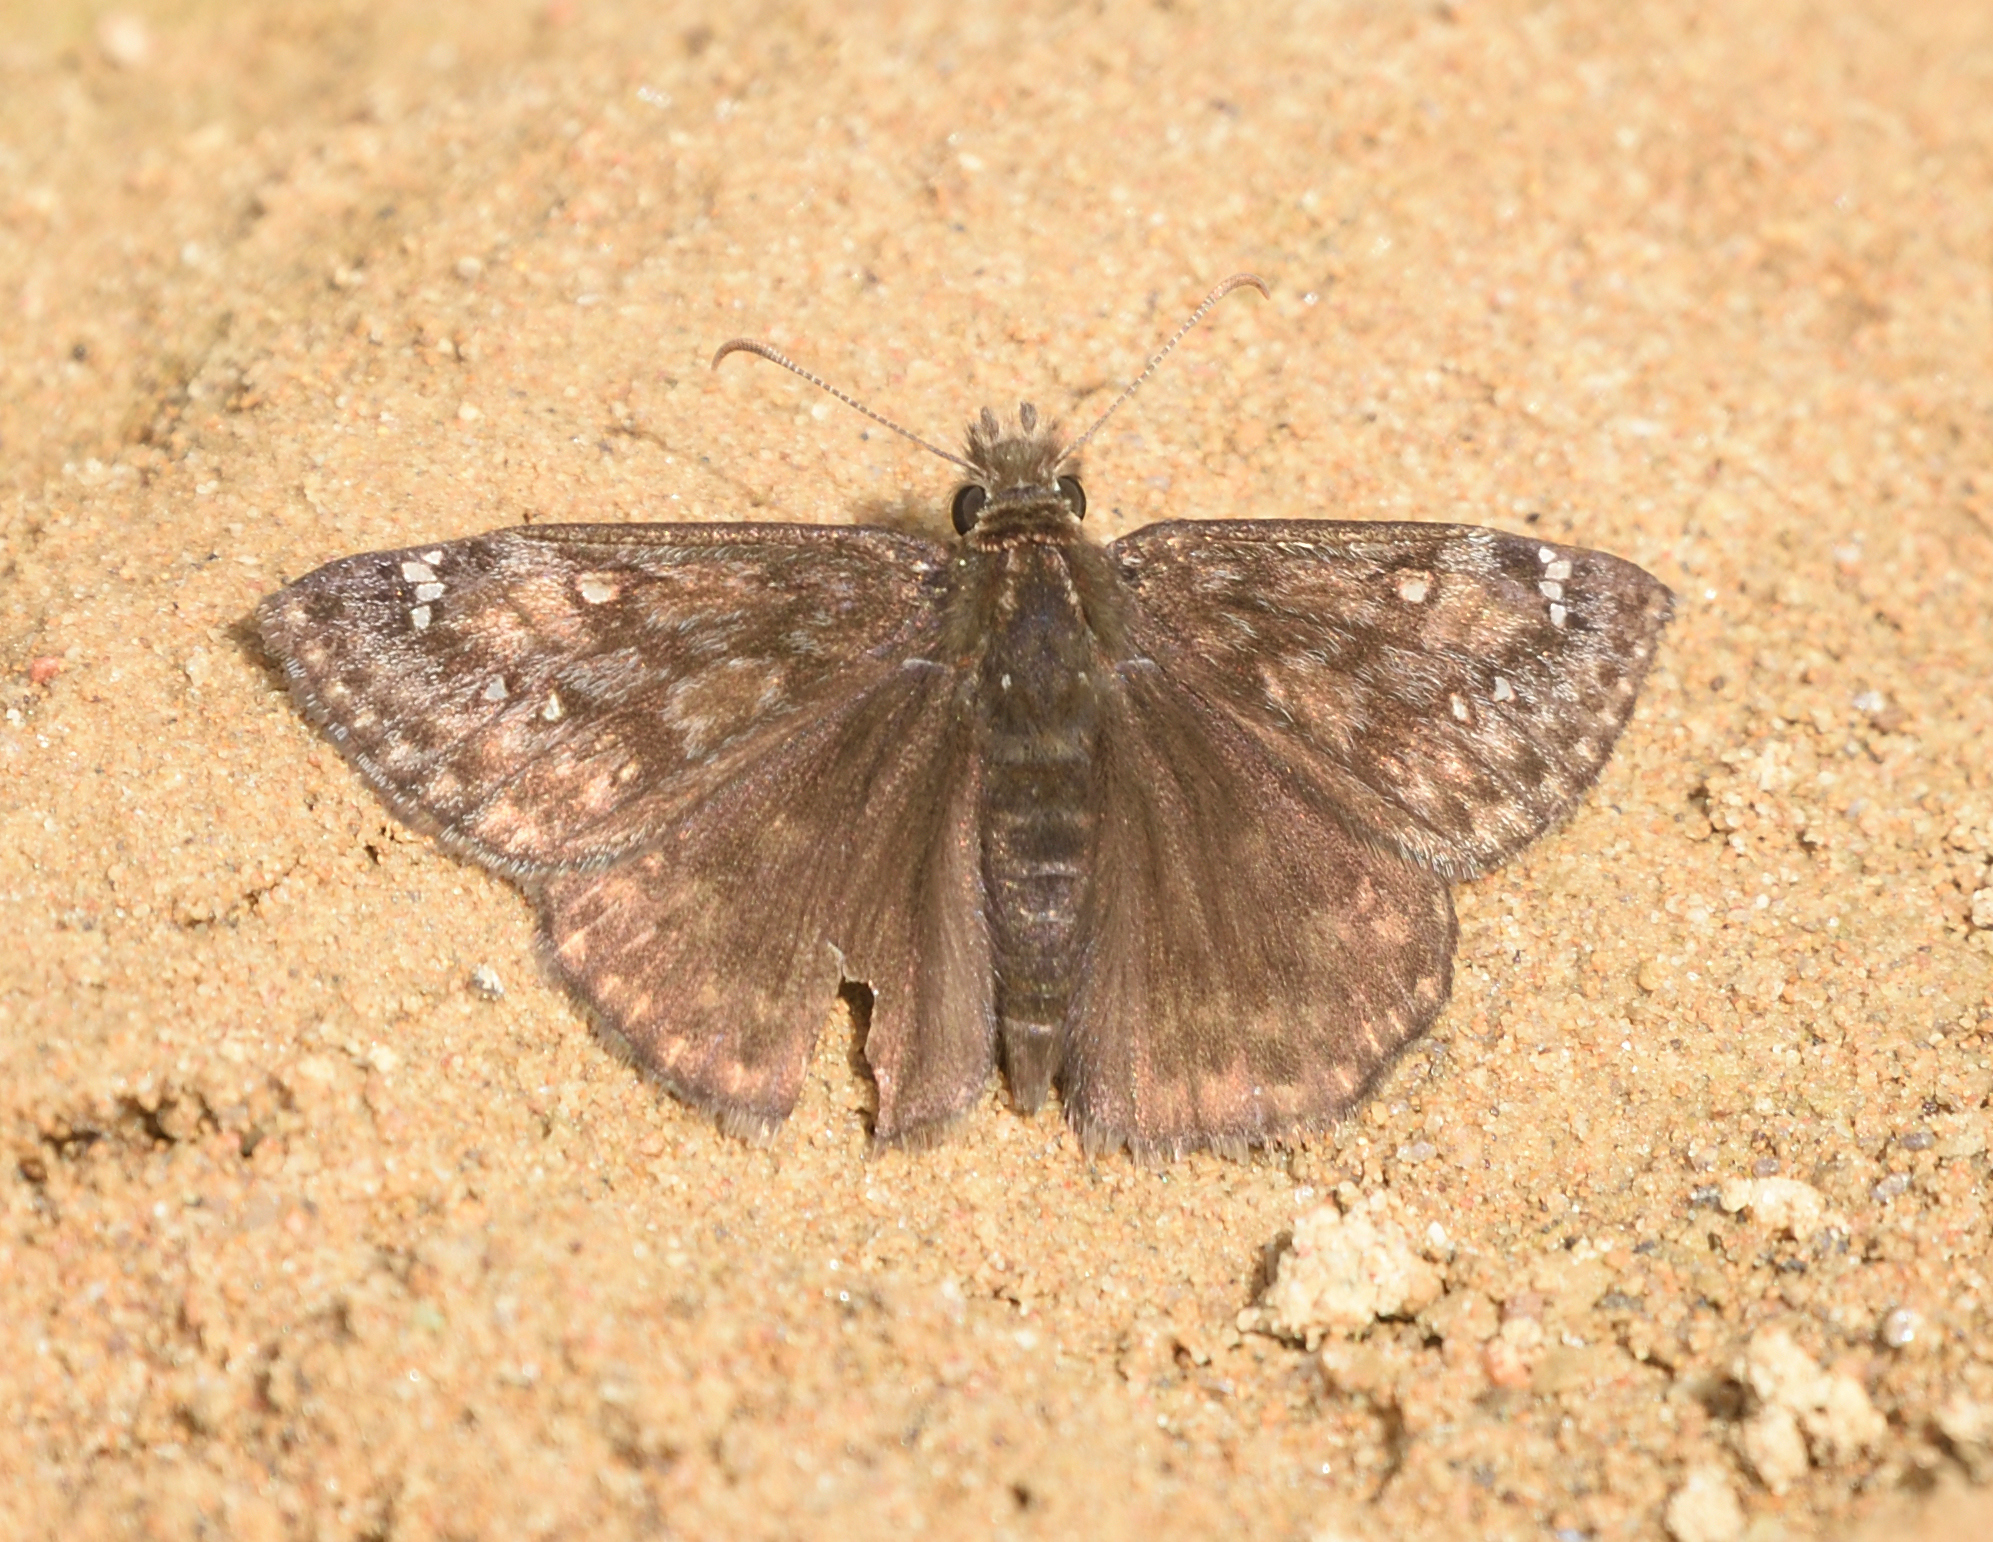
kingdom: Animalia
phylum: Arthropoda
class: Insecta
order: Lepidoptera
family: Hesperiidae
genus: Erynnis
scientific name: Erynnis horatius
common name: Horace's duskywing
